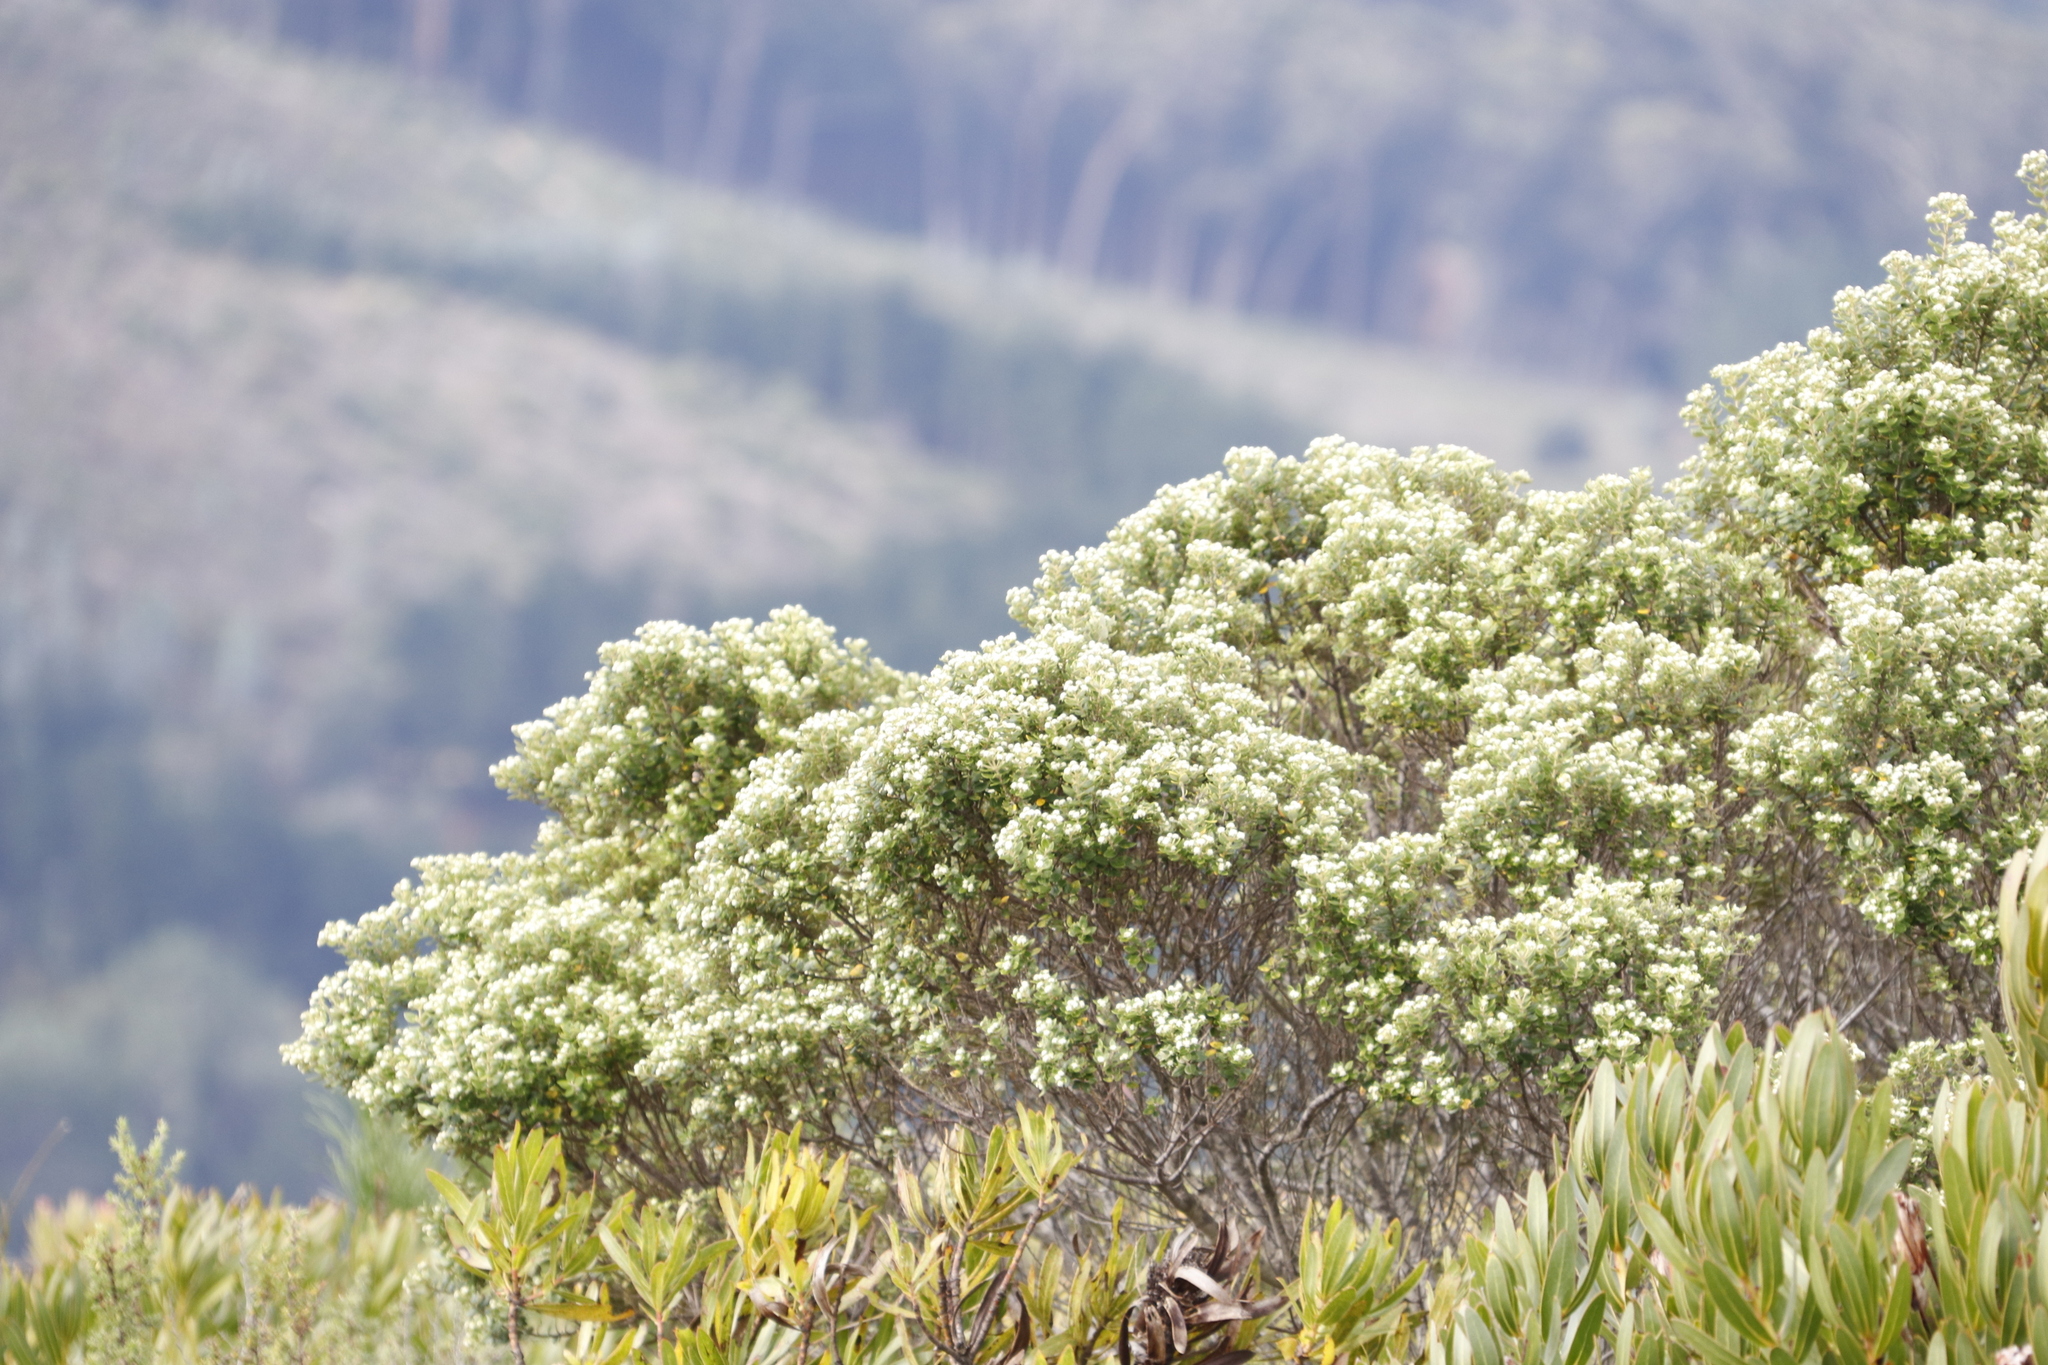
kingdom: Plantae
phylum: Tracheophyta
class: Magnoliopsida
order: Rosales
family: Rhamnaceae
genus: Phylica
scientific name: Phylica buxifolia
